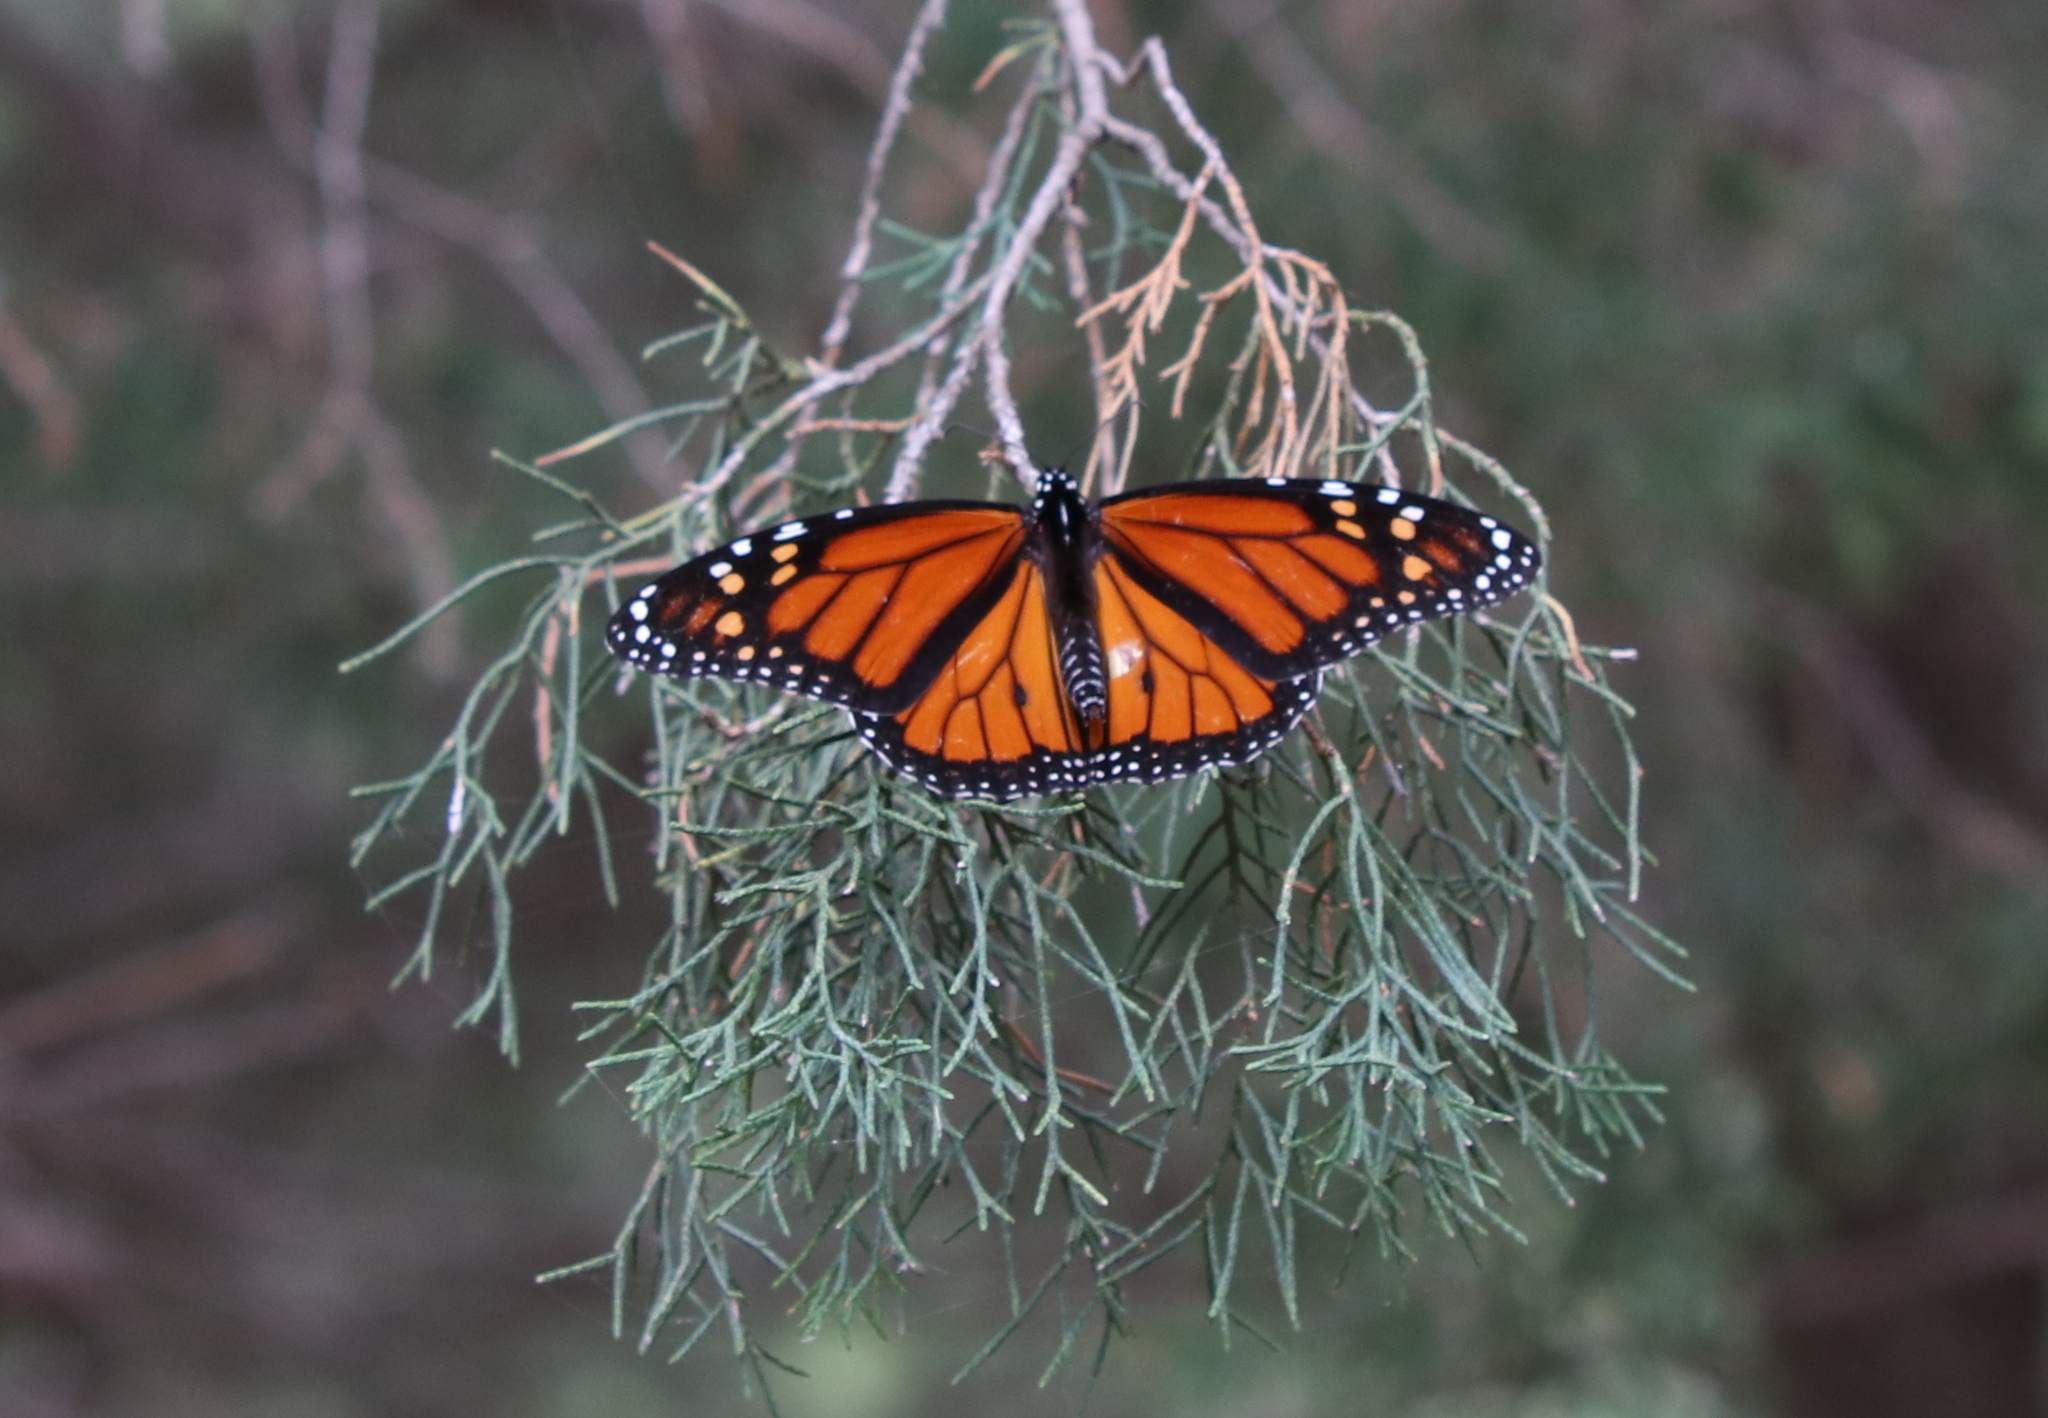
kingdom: Animalia
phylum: Arthropoda
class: Insecta
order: Lepidoptera
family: Nymphalidae
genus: Danaus
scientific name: Danaus plexippus
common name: Monarch
